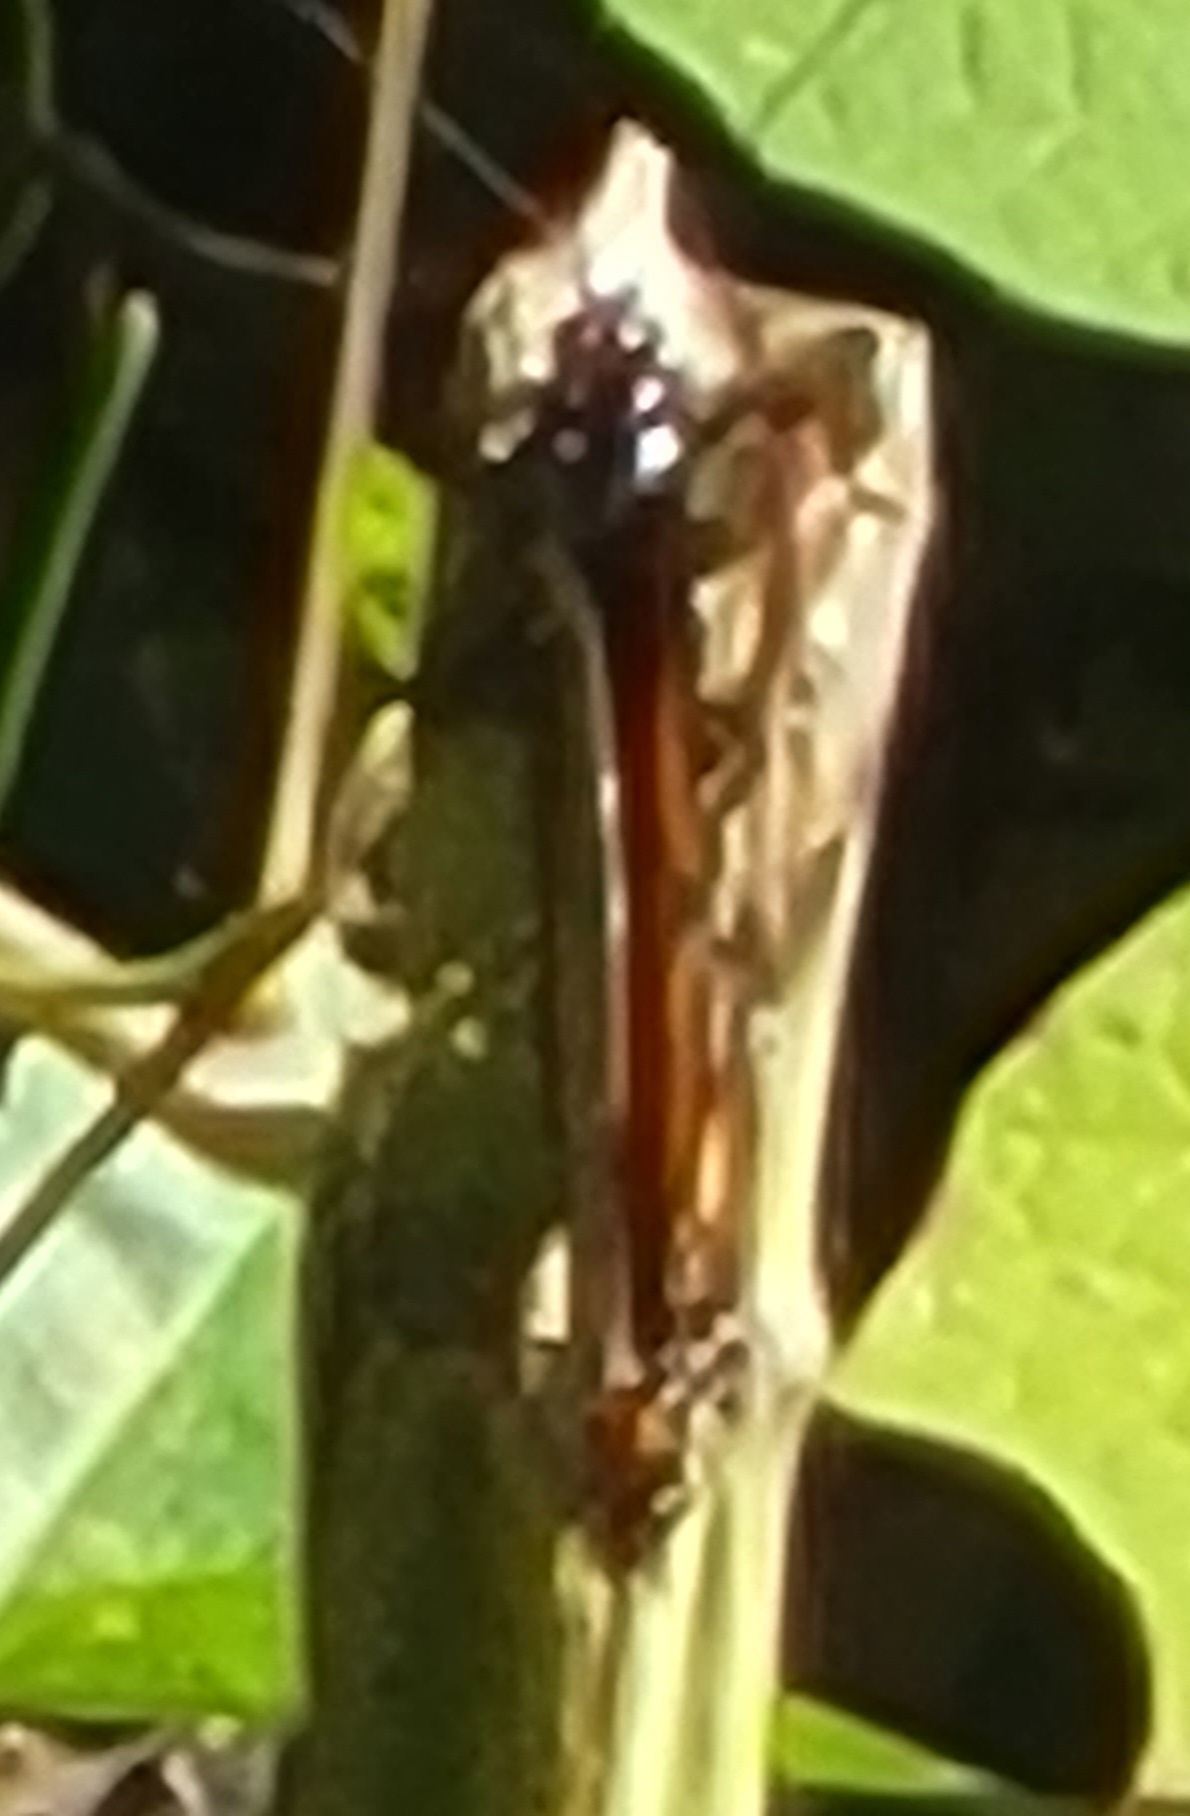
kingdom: Animalia
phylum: Arthropoda
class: Insecta
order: Lepidoptera
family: Nymphalidae
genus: Danaus
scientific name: Danaus plexippus
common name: Monarch
